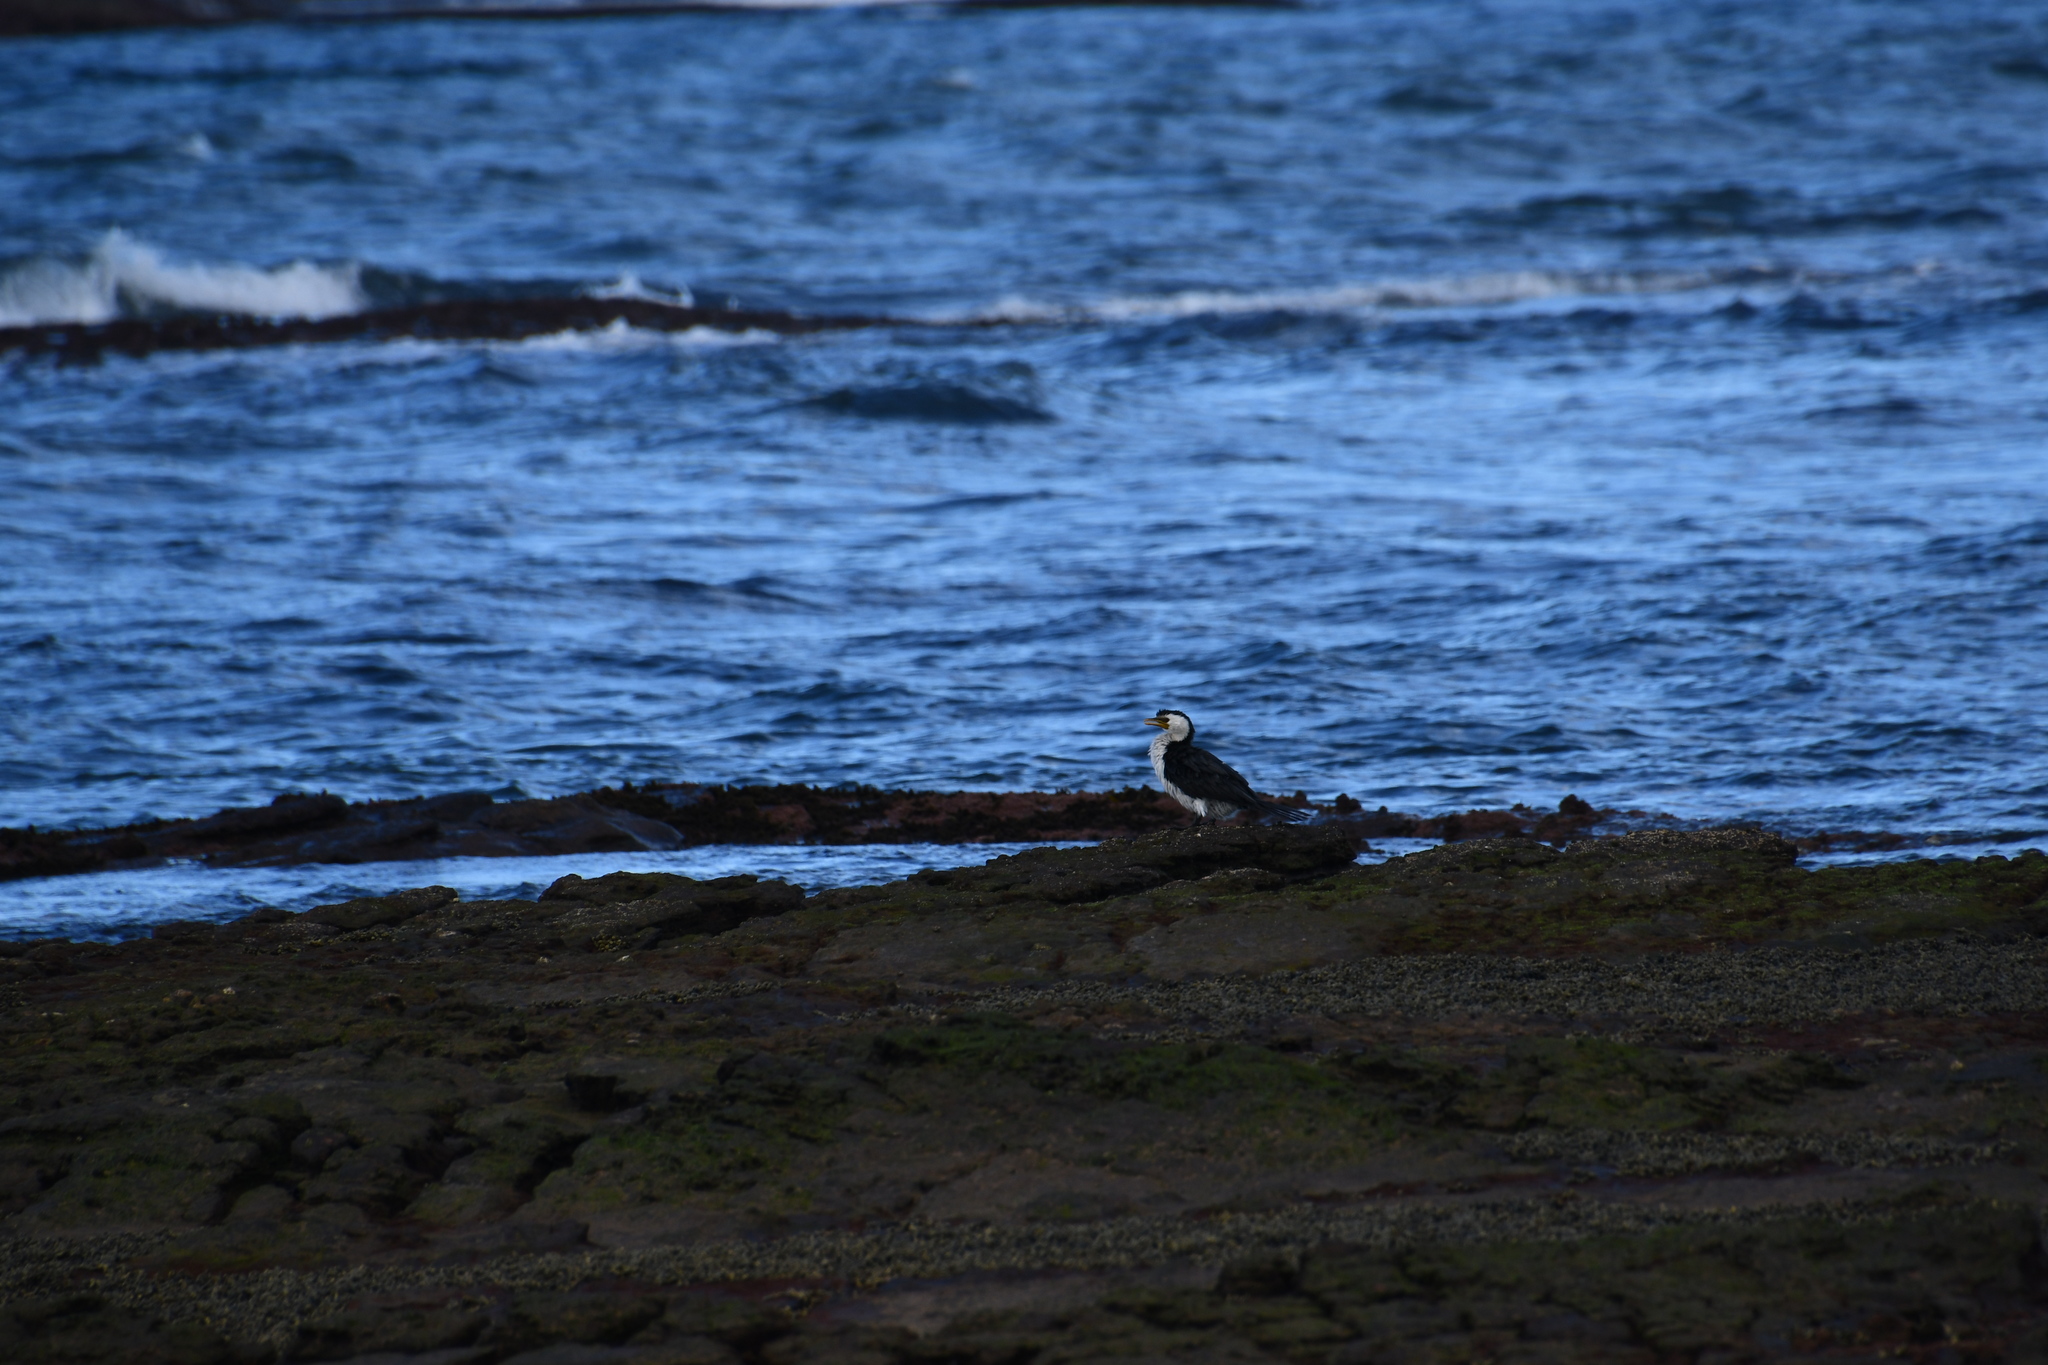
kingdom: Animalia
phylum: Chordata
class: Aves
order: Suliformes
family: Phalacrocoracidae
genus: Microcarbo
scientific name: Microcarbo melanoleucos
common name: Little pied cormorant
